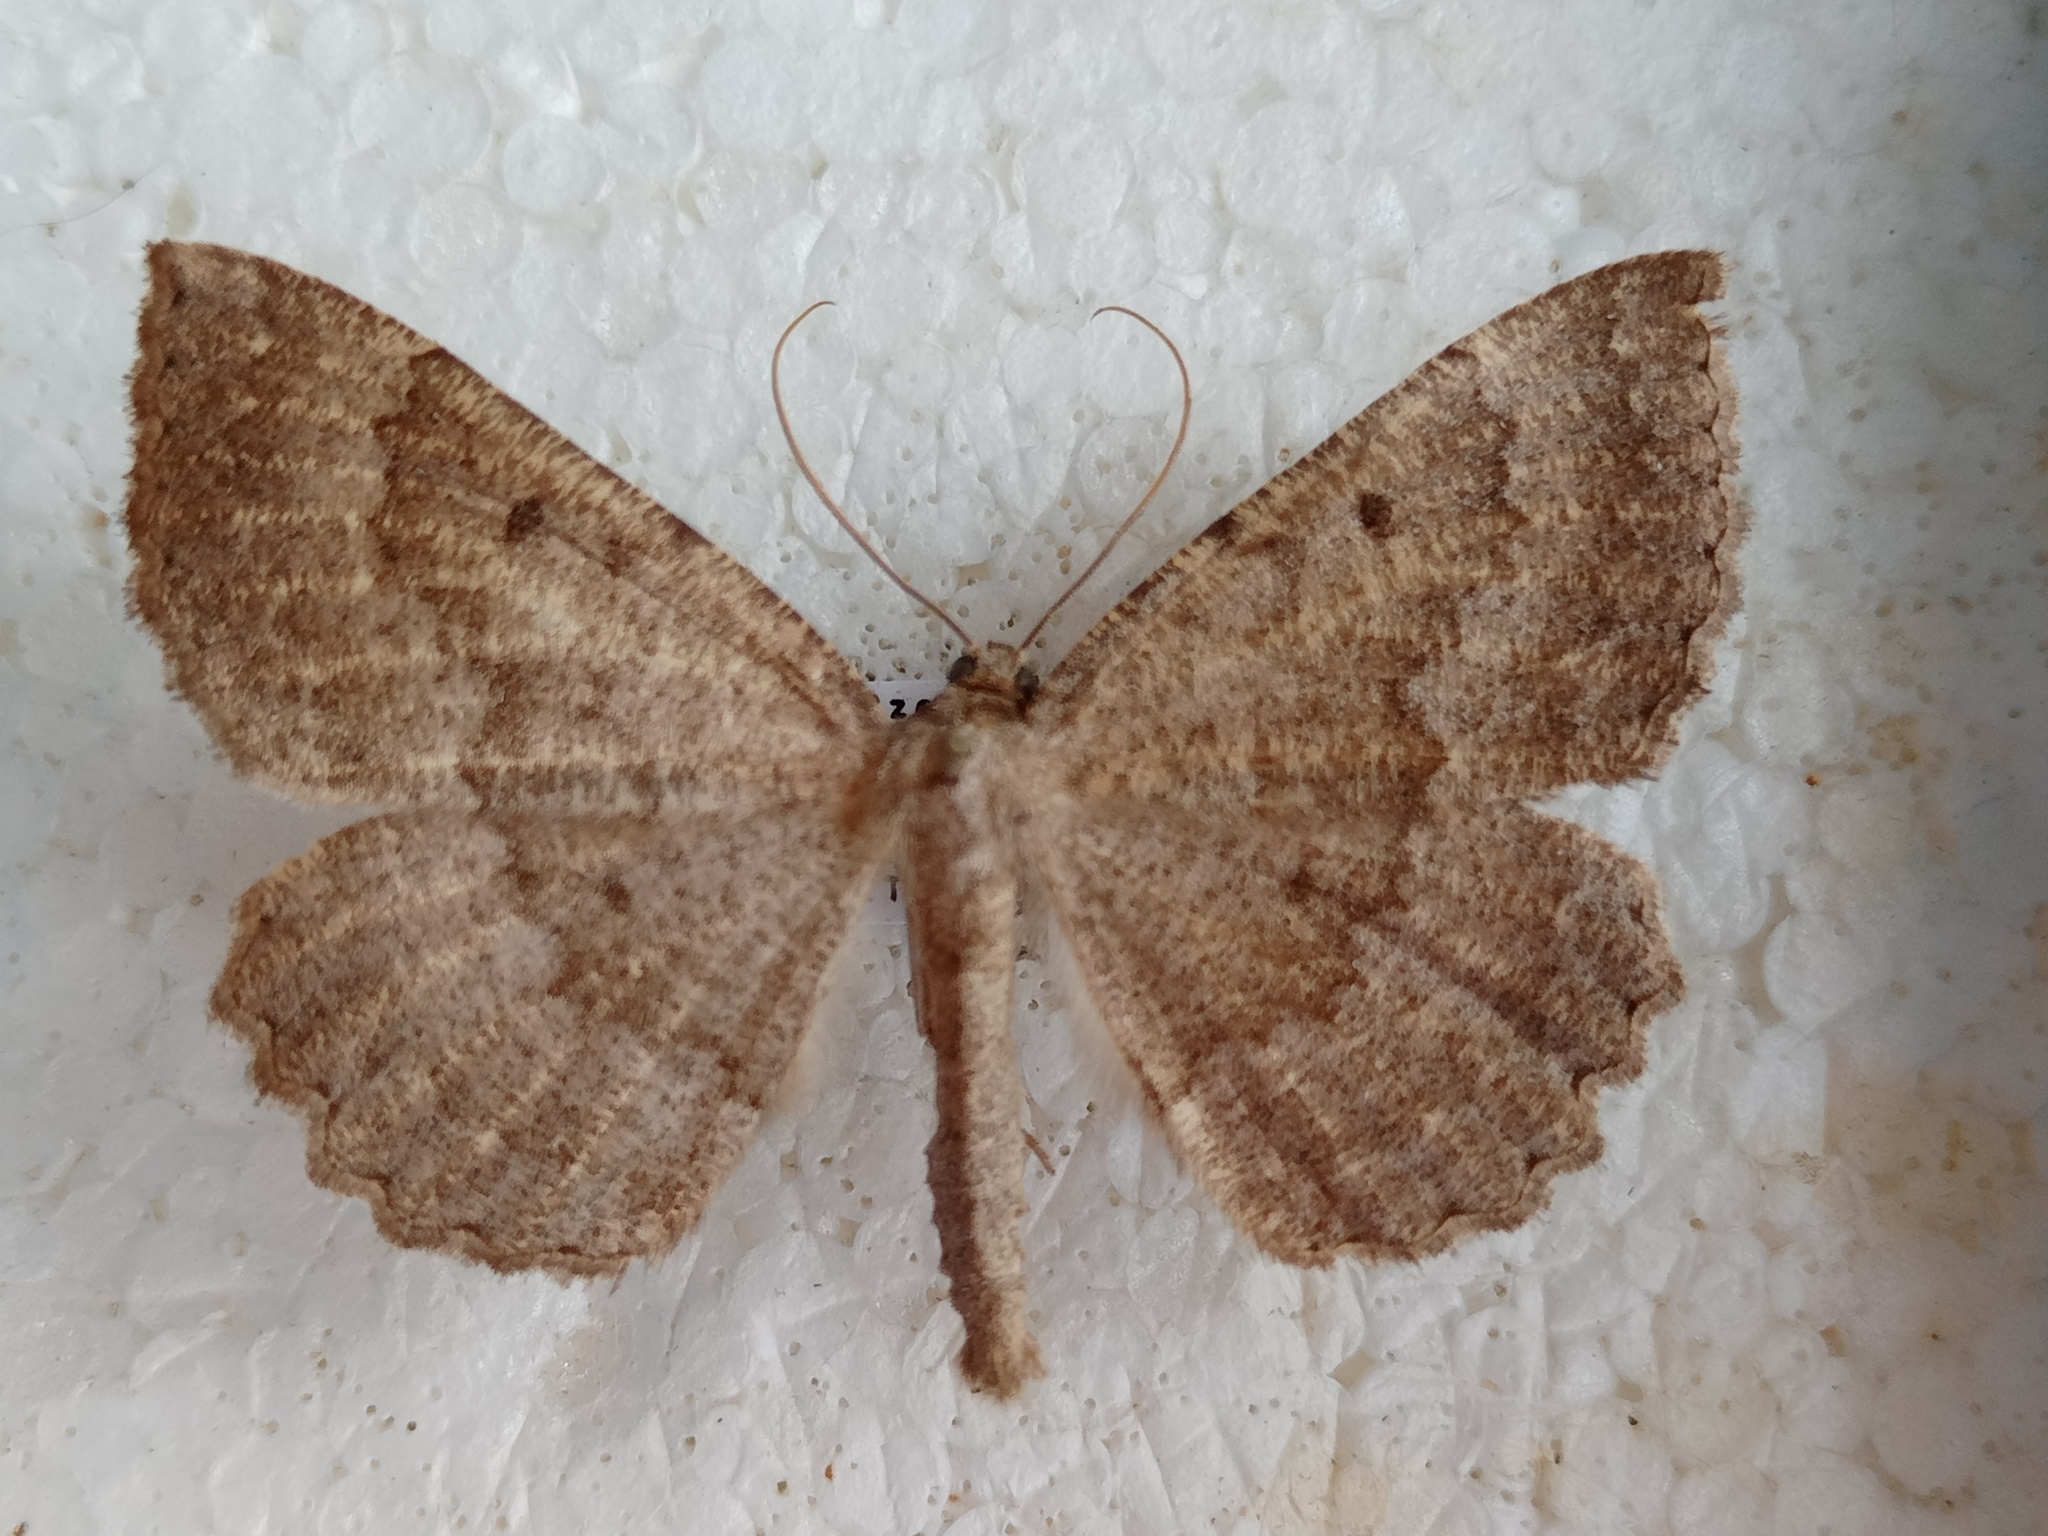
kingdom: Animalia
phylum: Arthropoda
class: Insecta
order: Lepidoptera
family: Geometridae
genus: Gnophos
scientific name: Gnophos furvata
